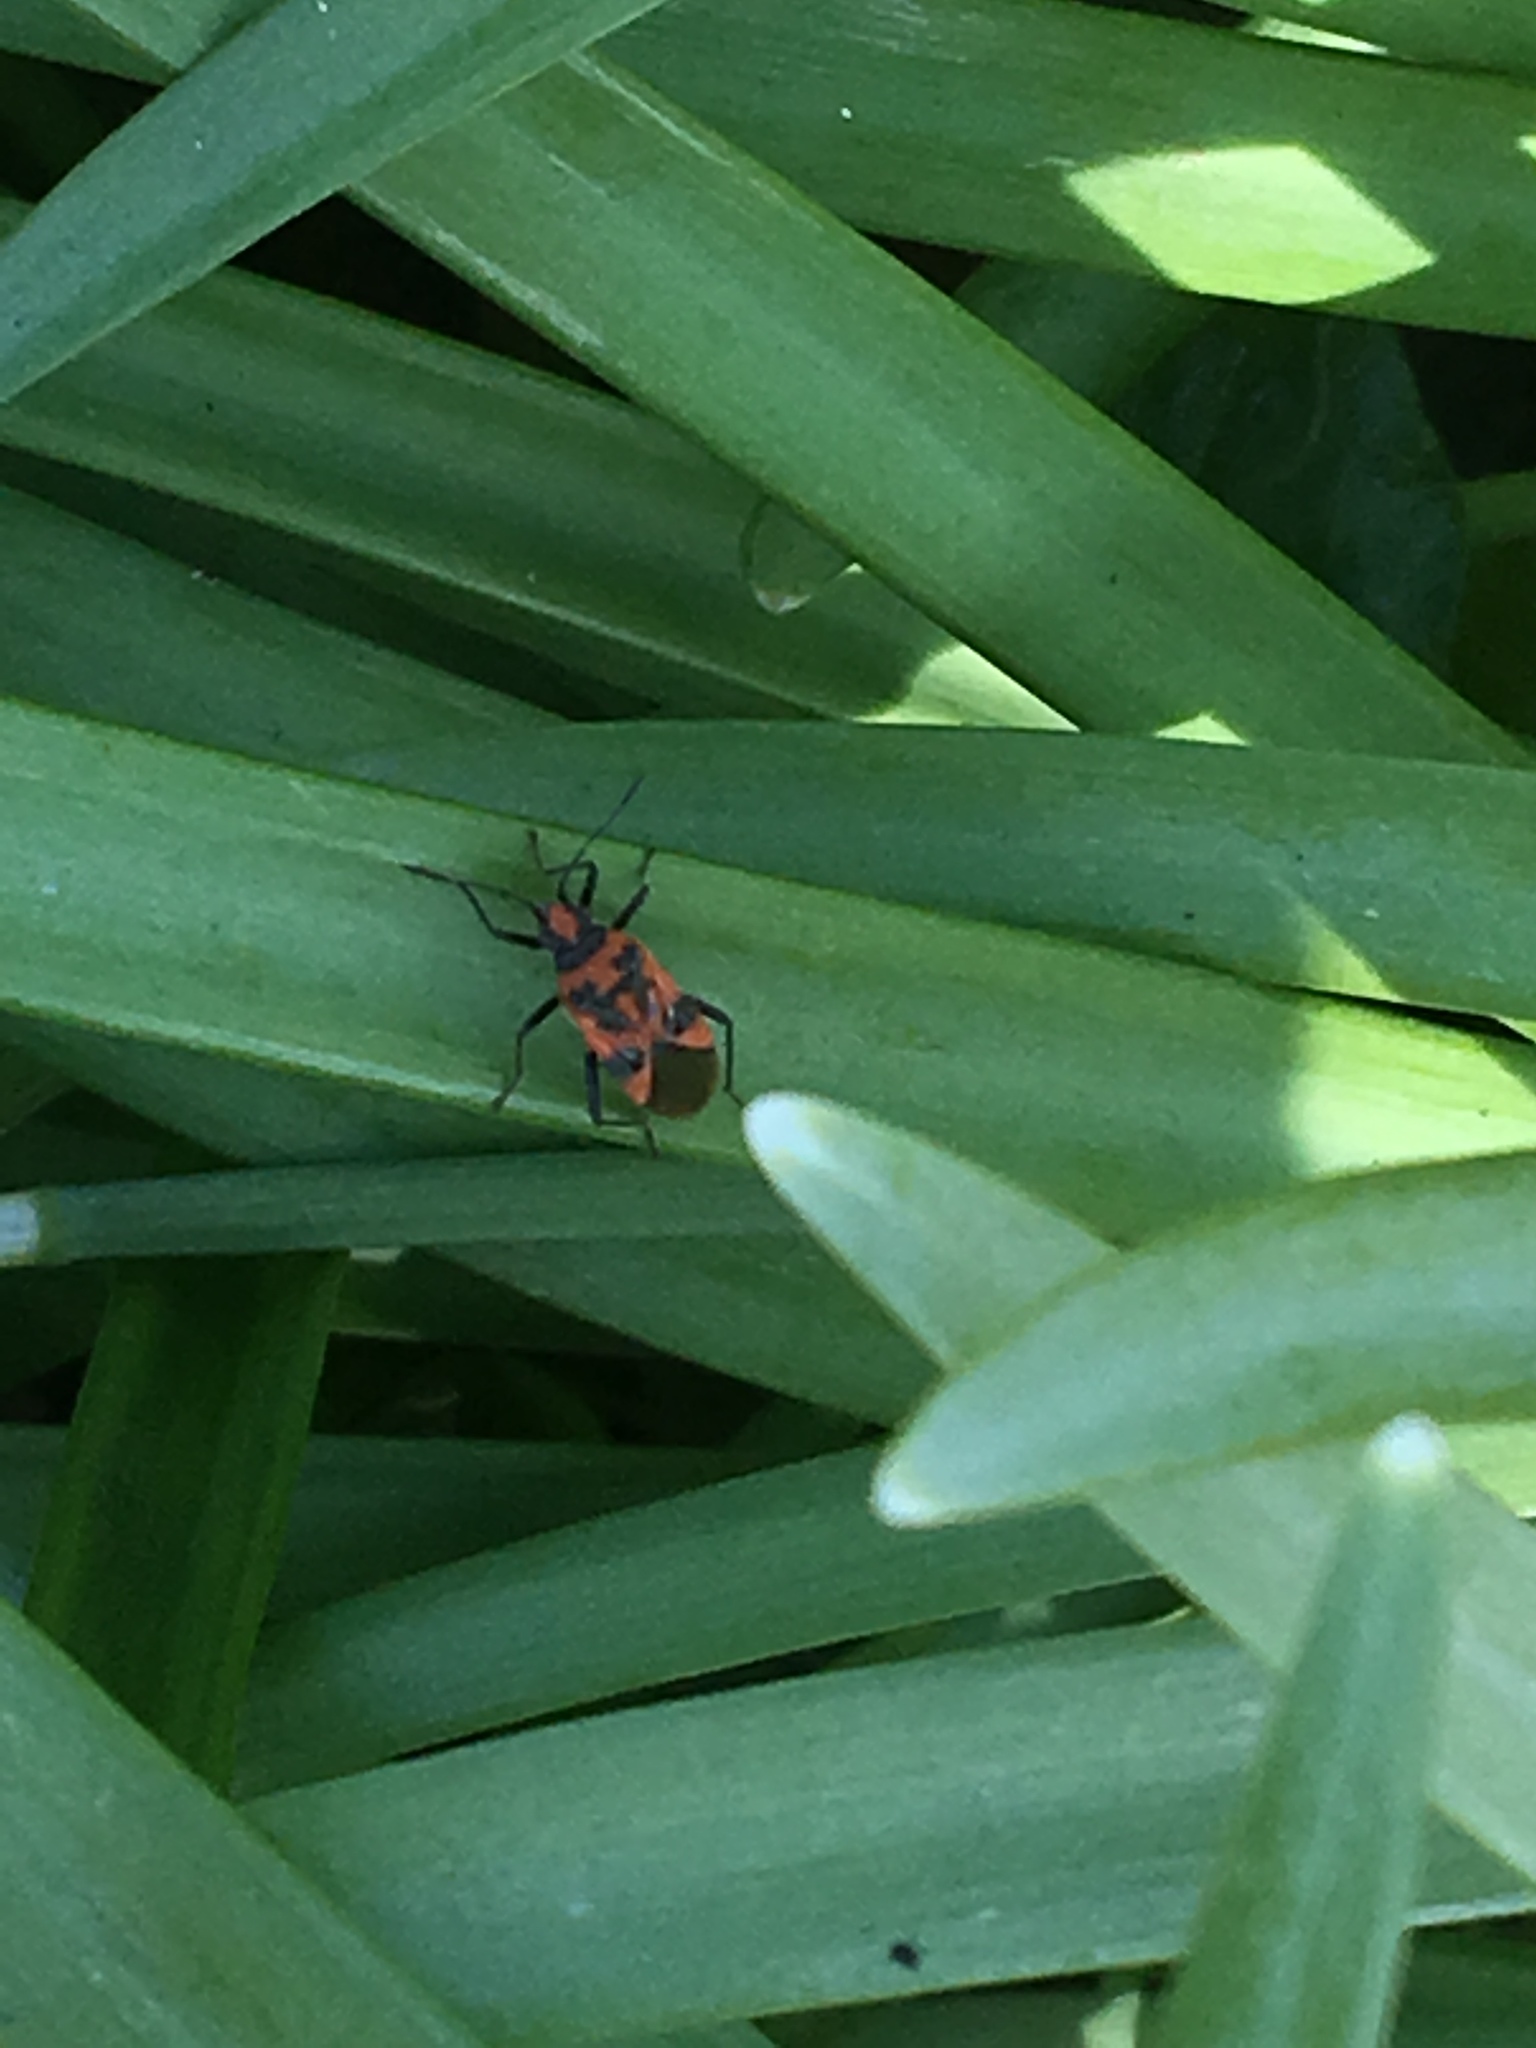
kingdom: Animalia
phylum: Arthropoda
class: Insecta
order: Hemiptera
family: Rhopalidae
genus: Corizus
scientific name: Corizus hyoscyami
